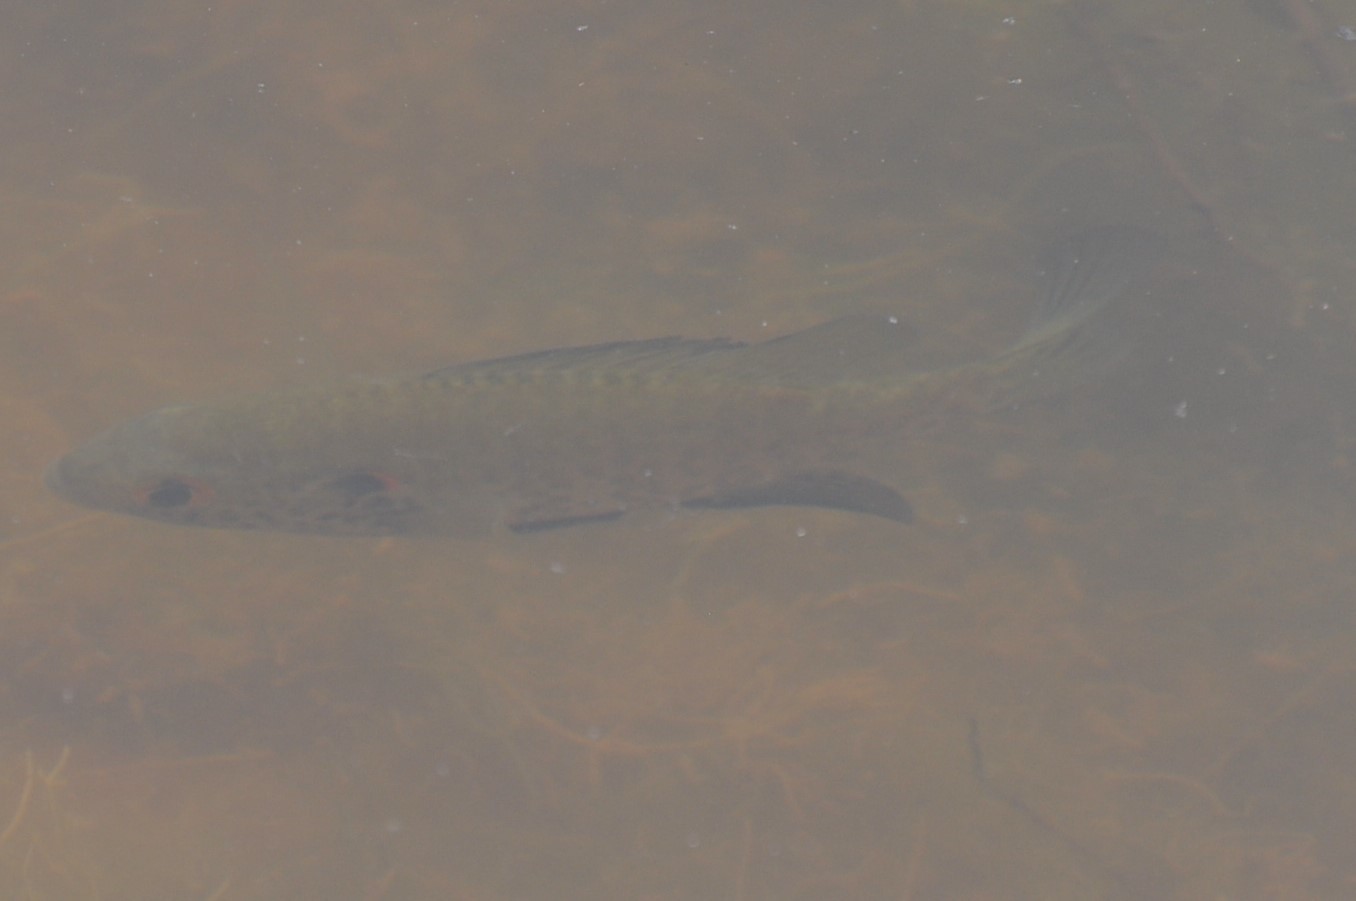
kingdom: Animalia
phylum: Chordata
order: Perciformes
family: Centrarchidae
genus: Lepomis
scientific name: Lepomis microlophus
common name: Redear sunfish
